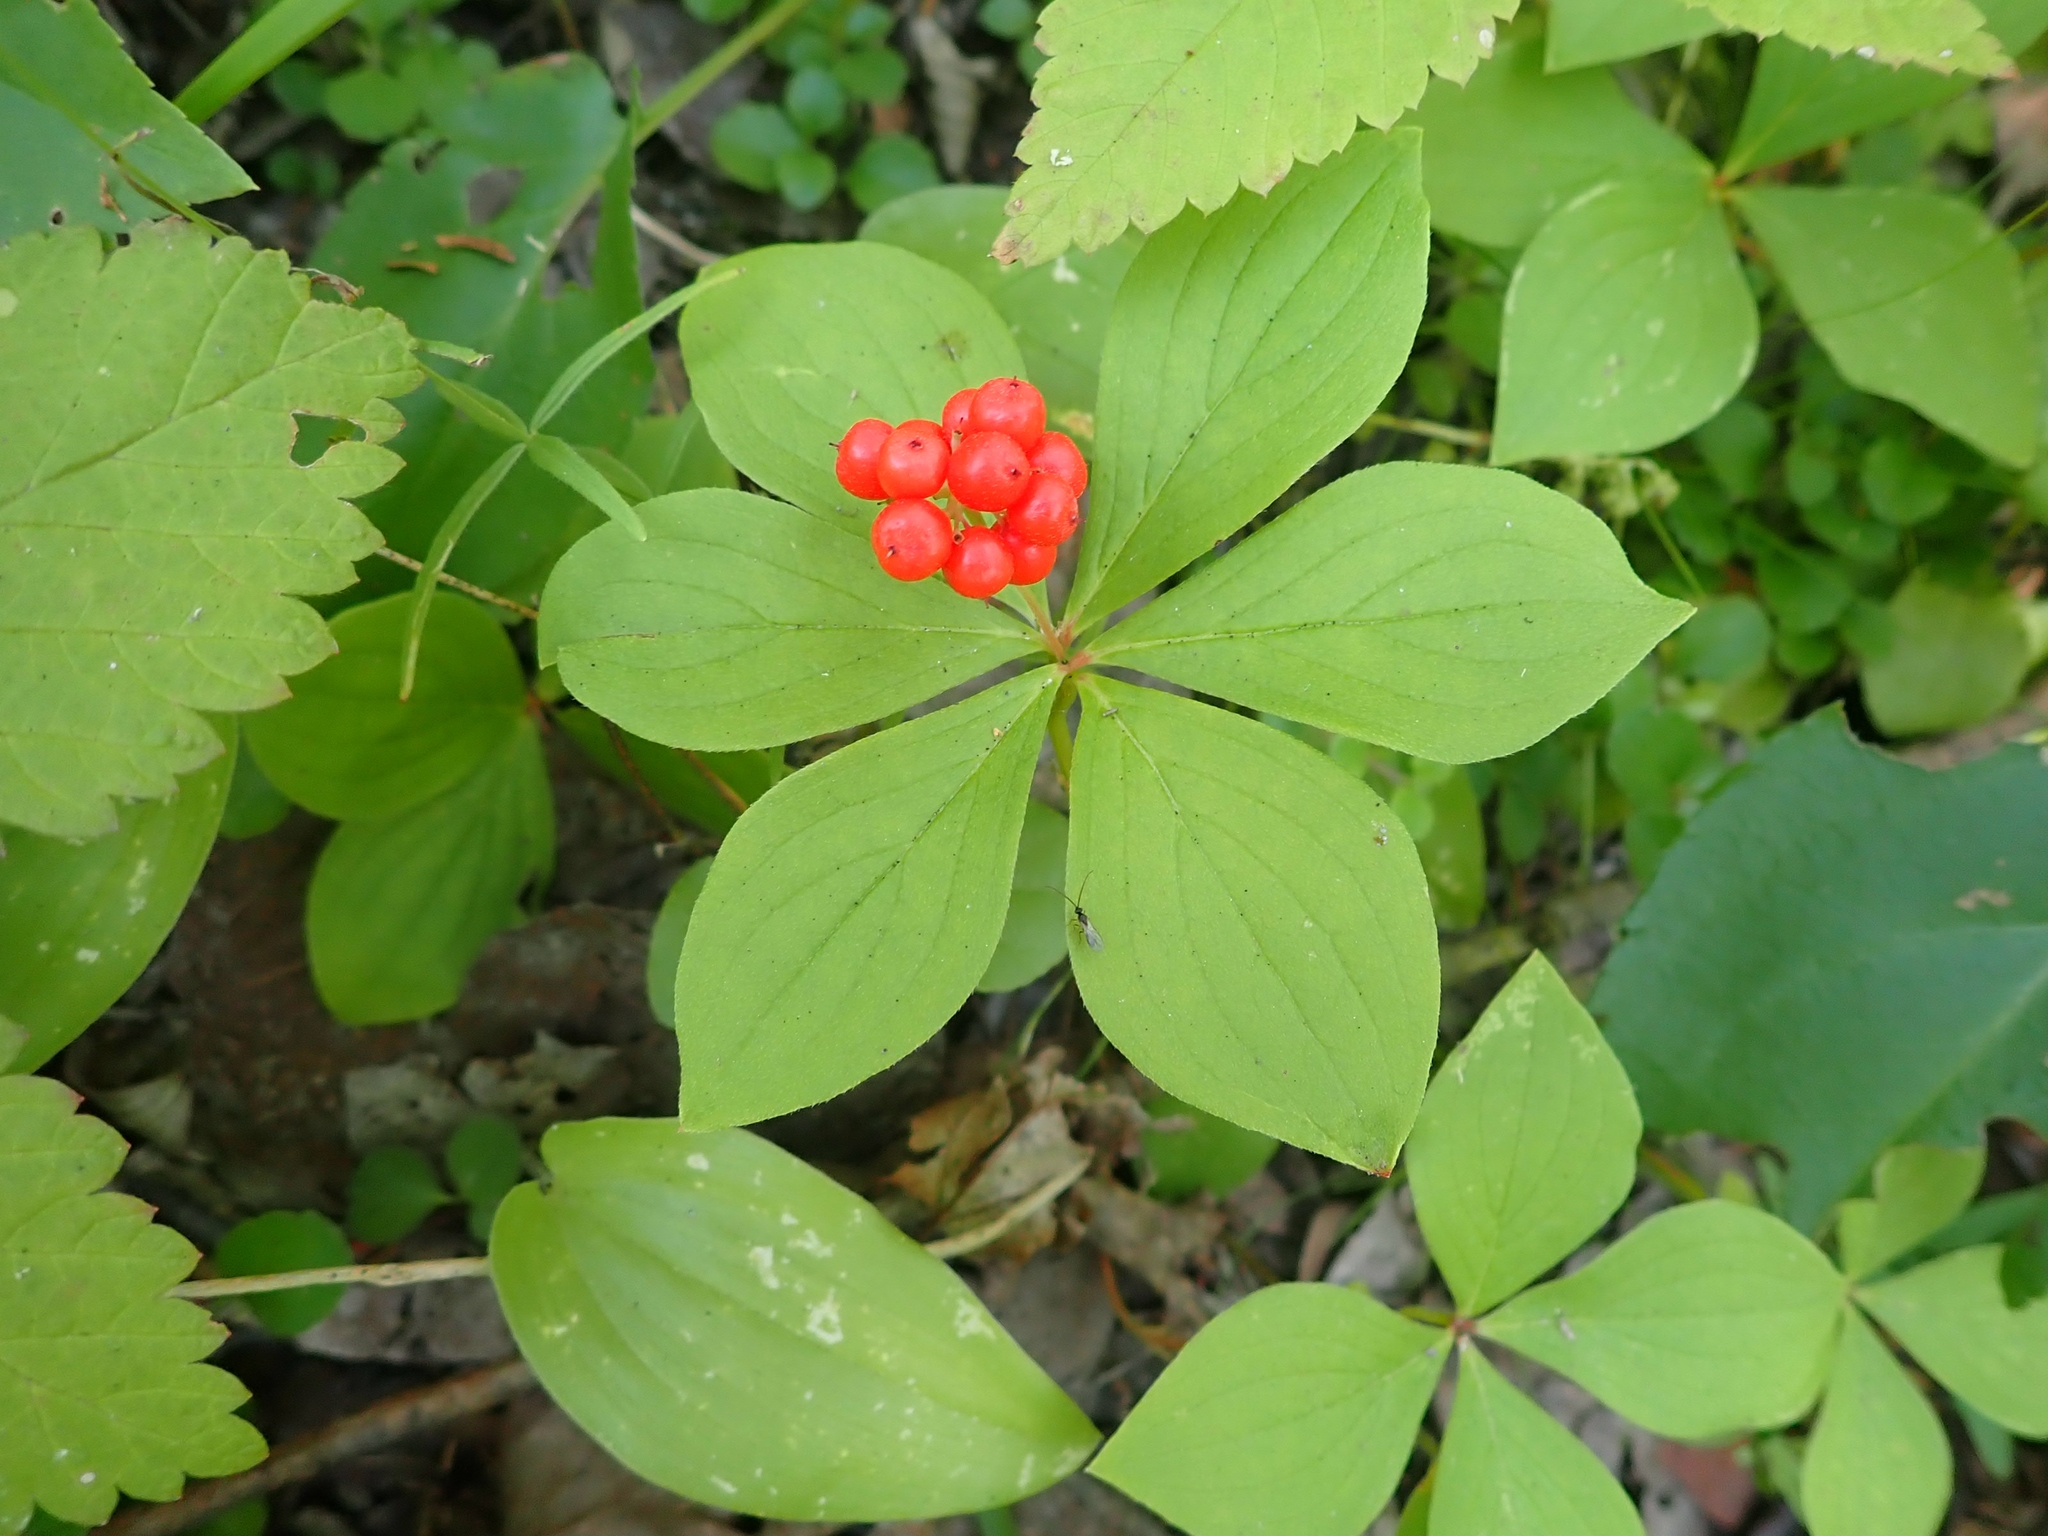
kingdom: Plantae
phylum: Tracheophyta
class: Magnoliopsida
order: Cornales
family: Cornaceae
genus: Cornus
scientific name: Cornus canadensis
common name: Creeping dogwood
